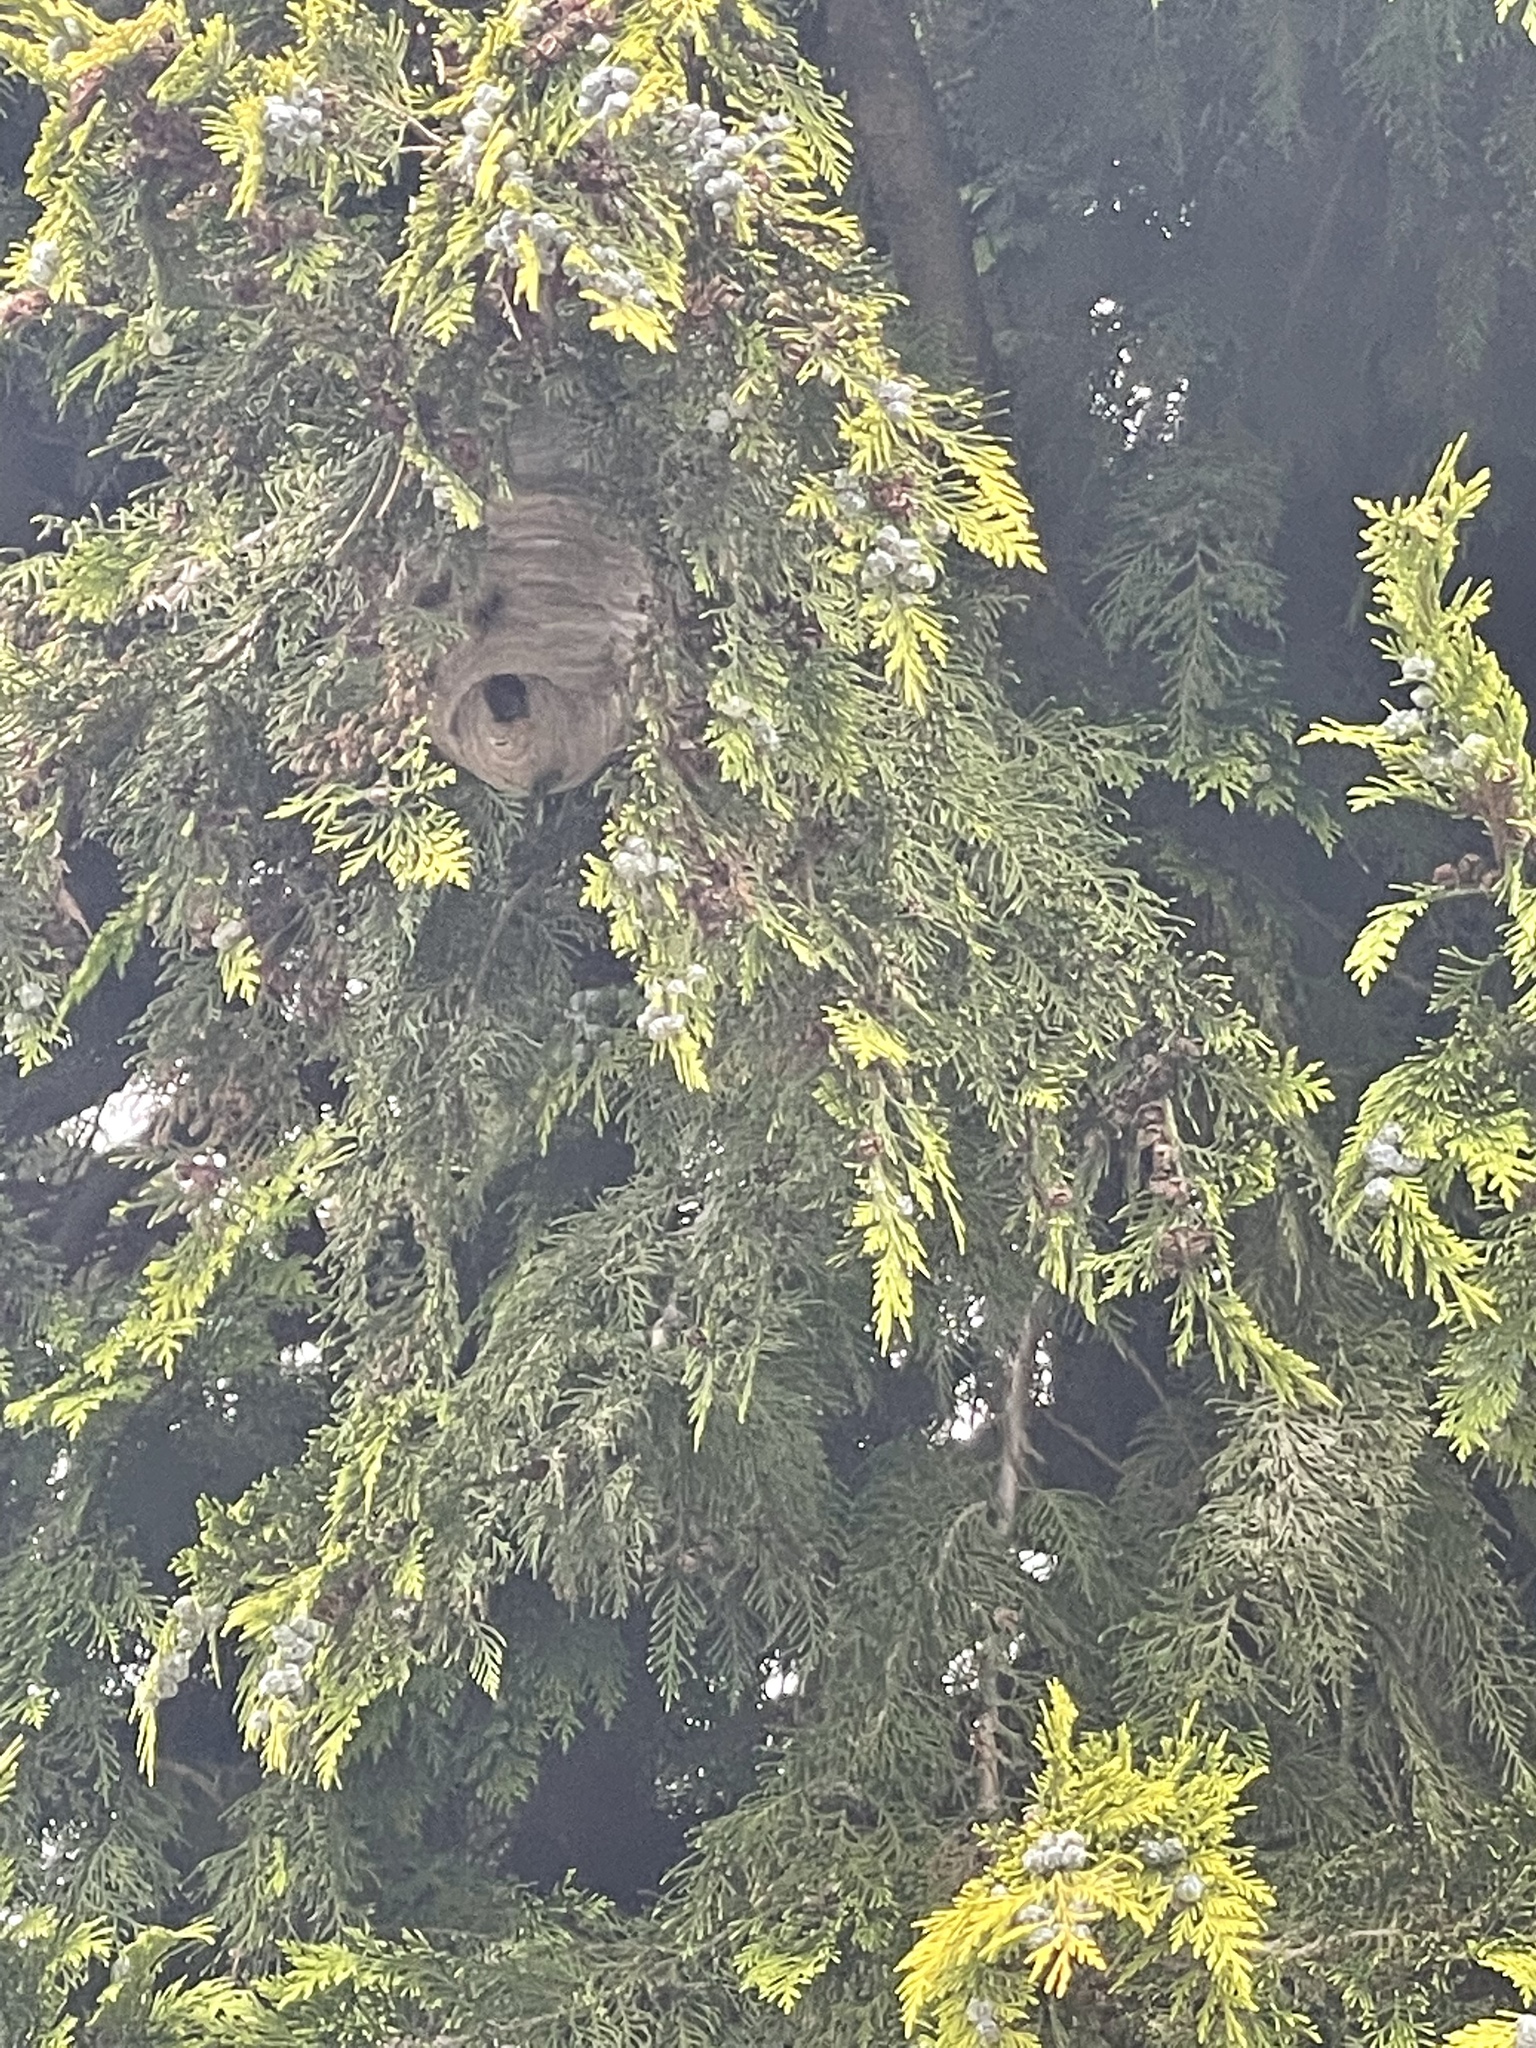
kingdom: Animalia
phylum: Arthropoda
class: Insecta
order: Hymenoptera
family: Vespidae
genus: Vespa
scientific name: Vespa velutina
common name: Asian hornet
